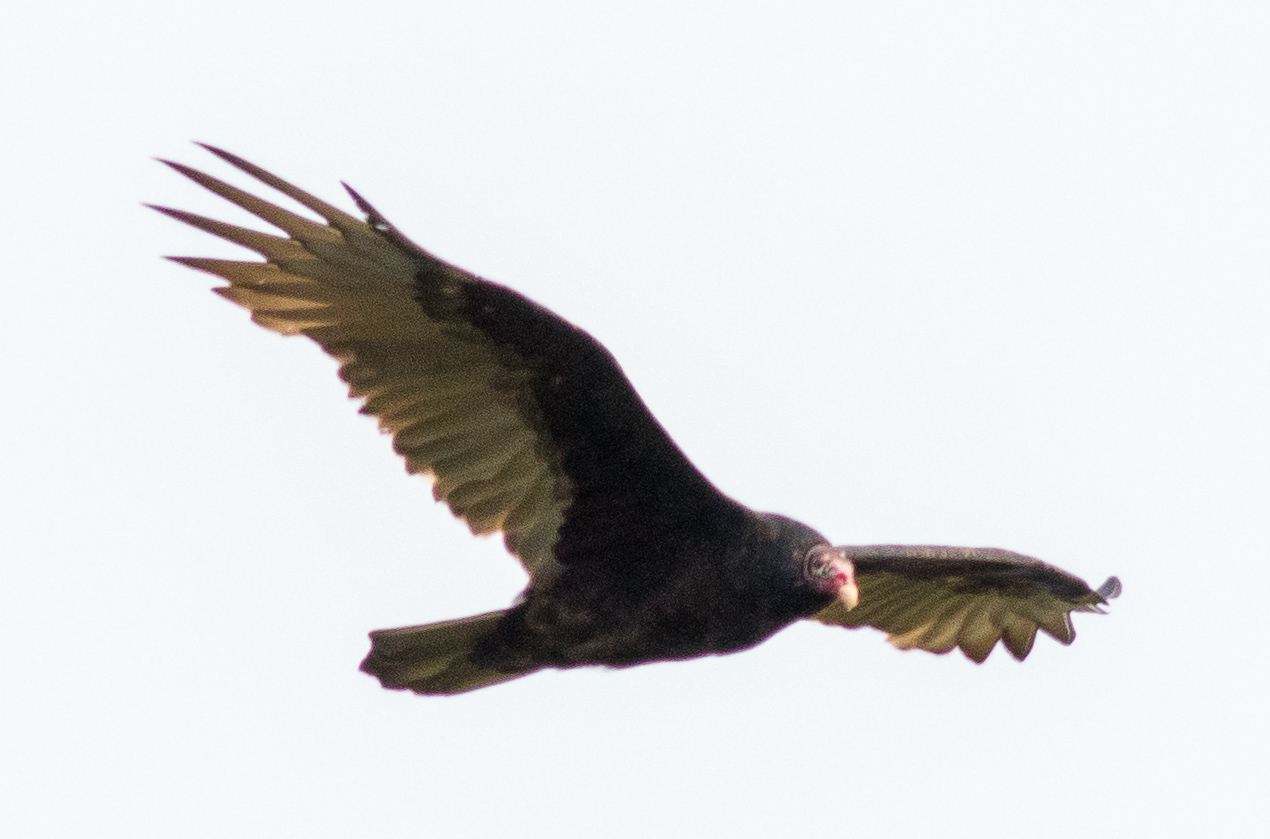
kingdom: Animalia
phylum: Chordata
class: Aves
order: Accipitriformes
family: Cathartidae
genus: Cathartes
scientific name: Cathartes aura
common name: Turkey vulture
